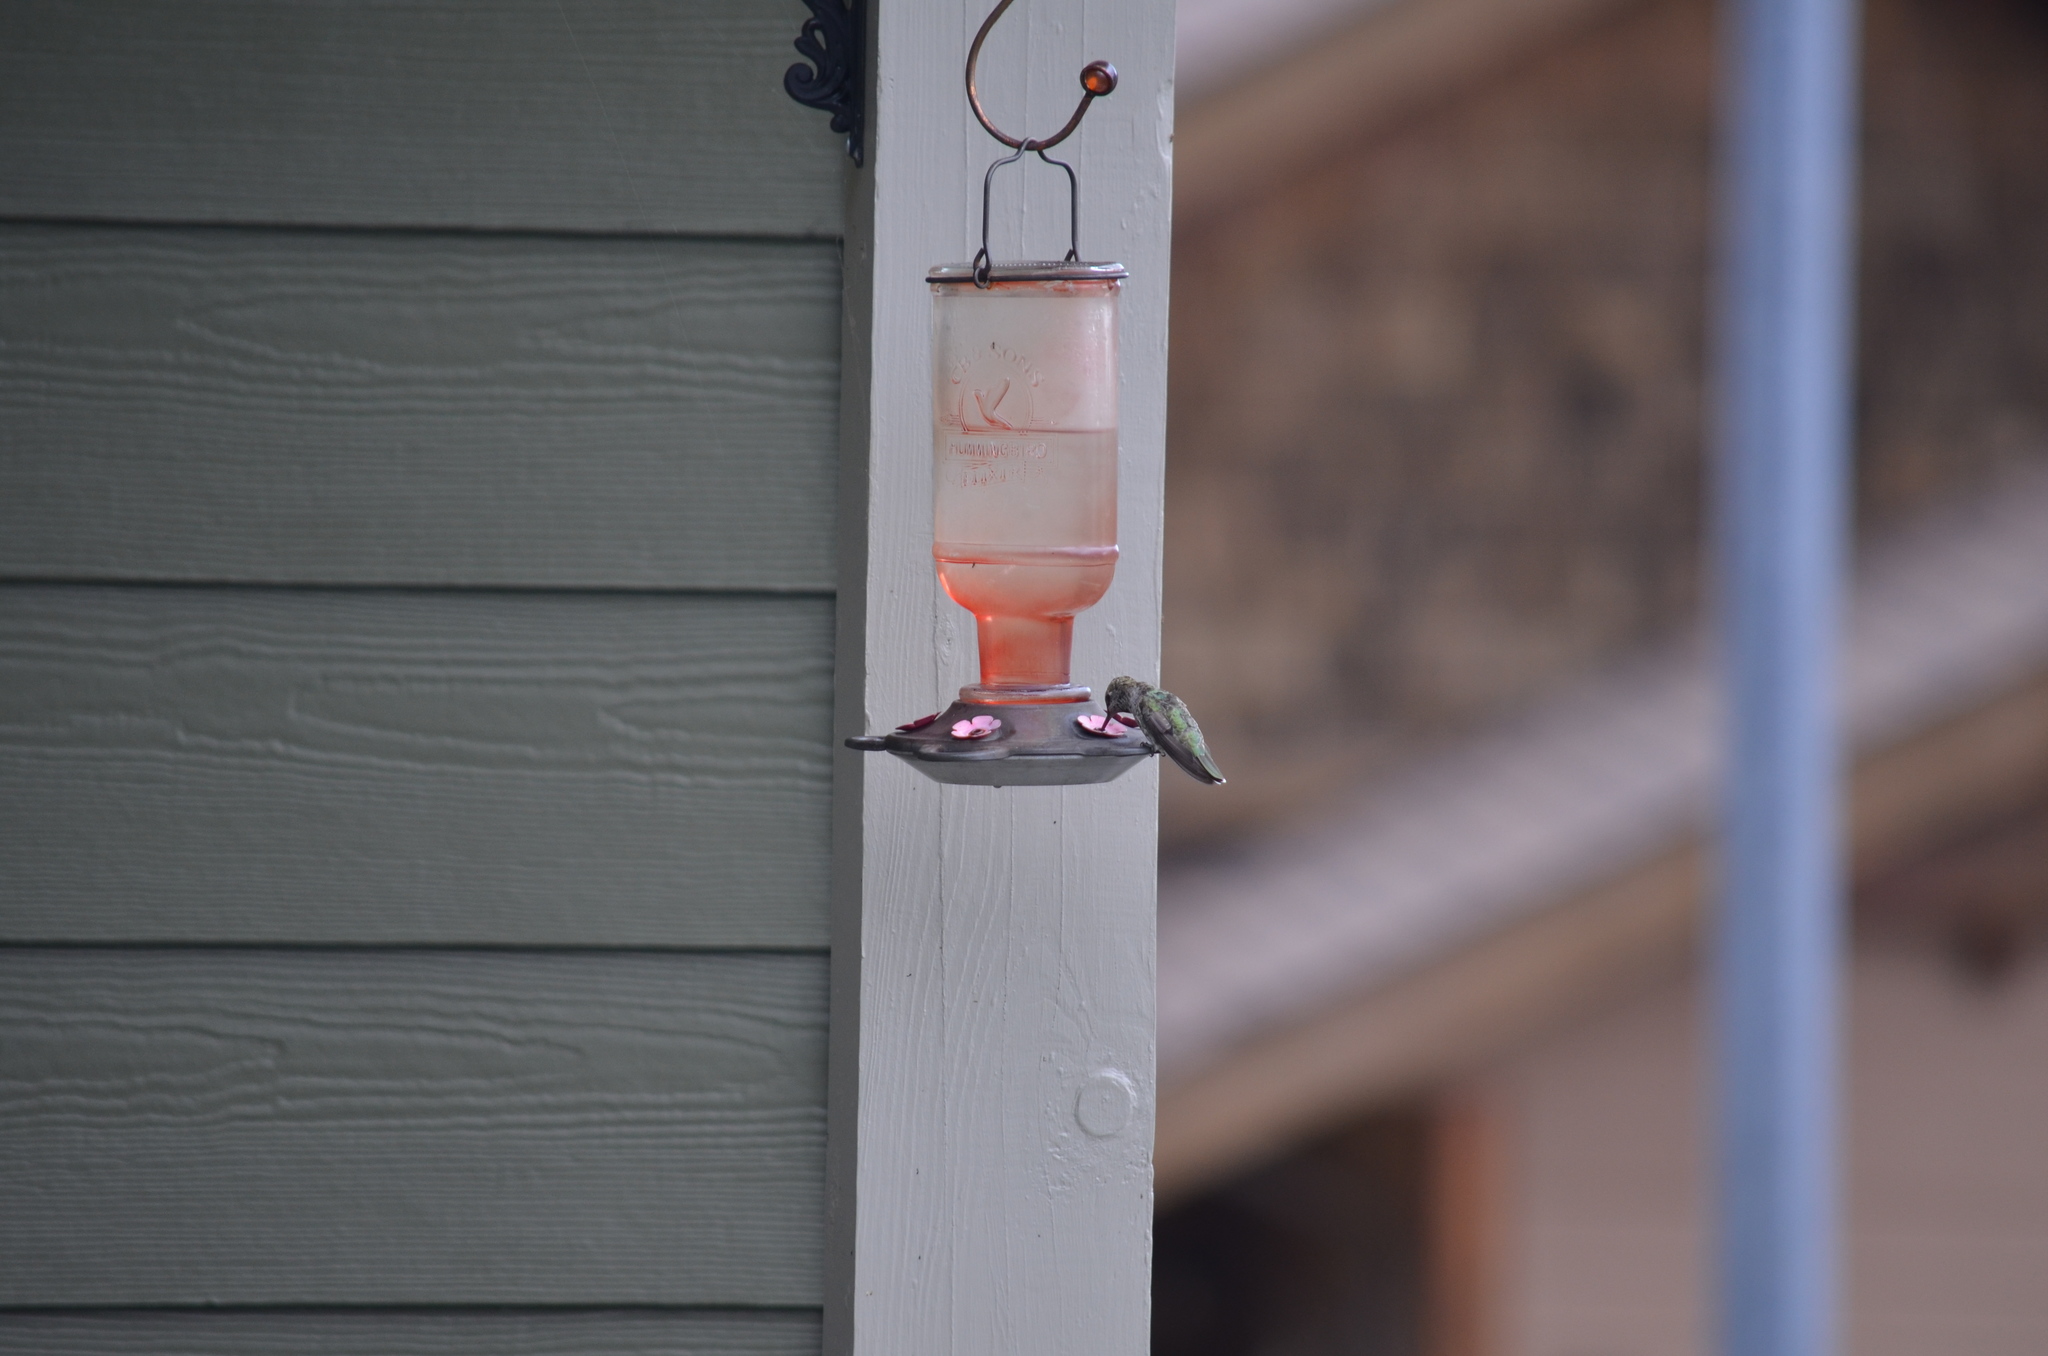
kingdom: Animalia
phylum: Chordata
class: Aves
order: Apodiformes
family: Trochilidae
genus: Calypte
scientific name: Calypte anna
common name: Anna's hummingbird
